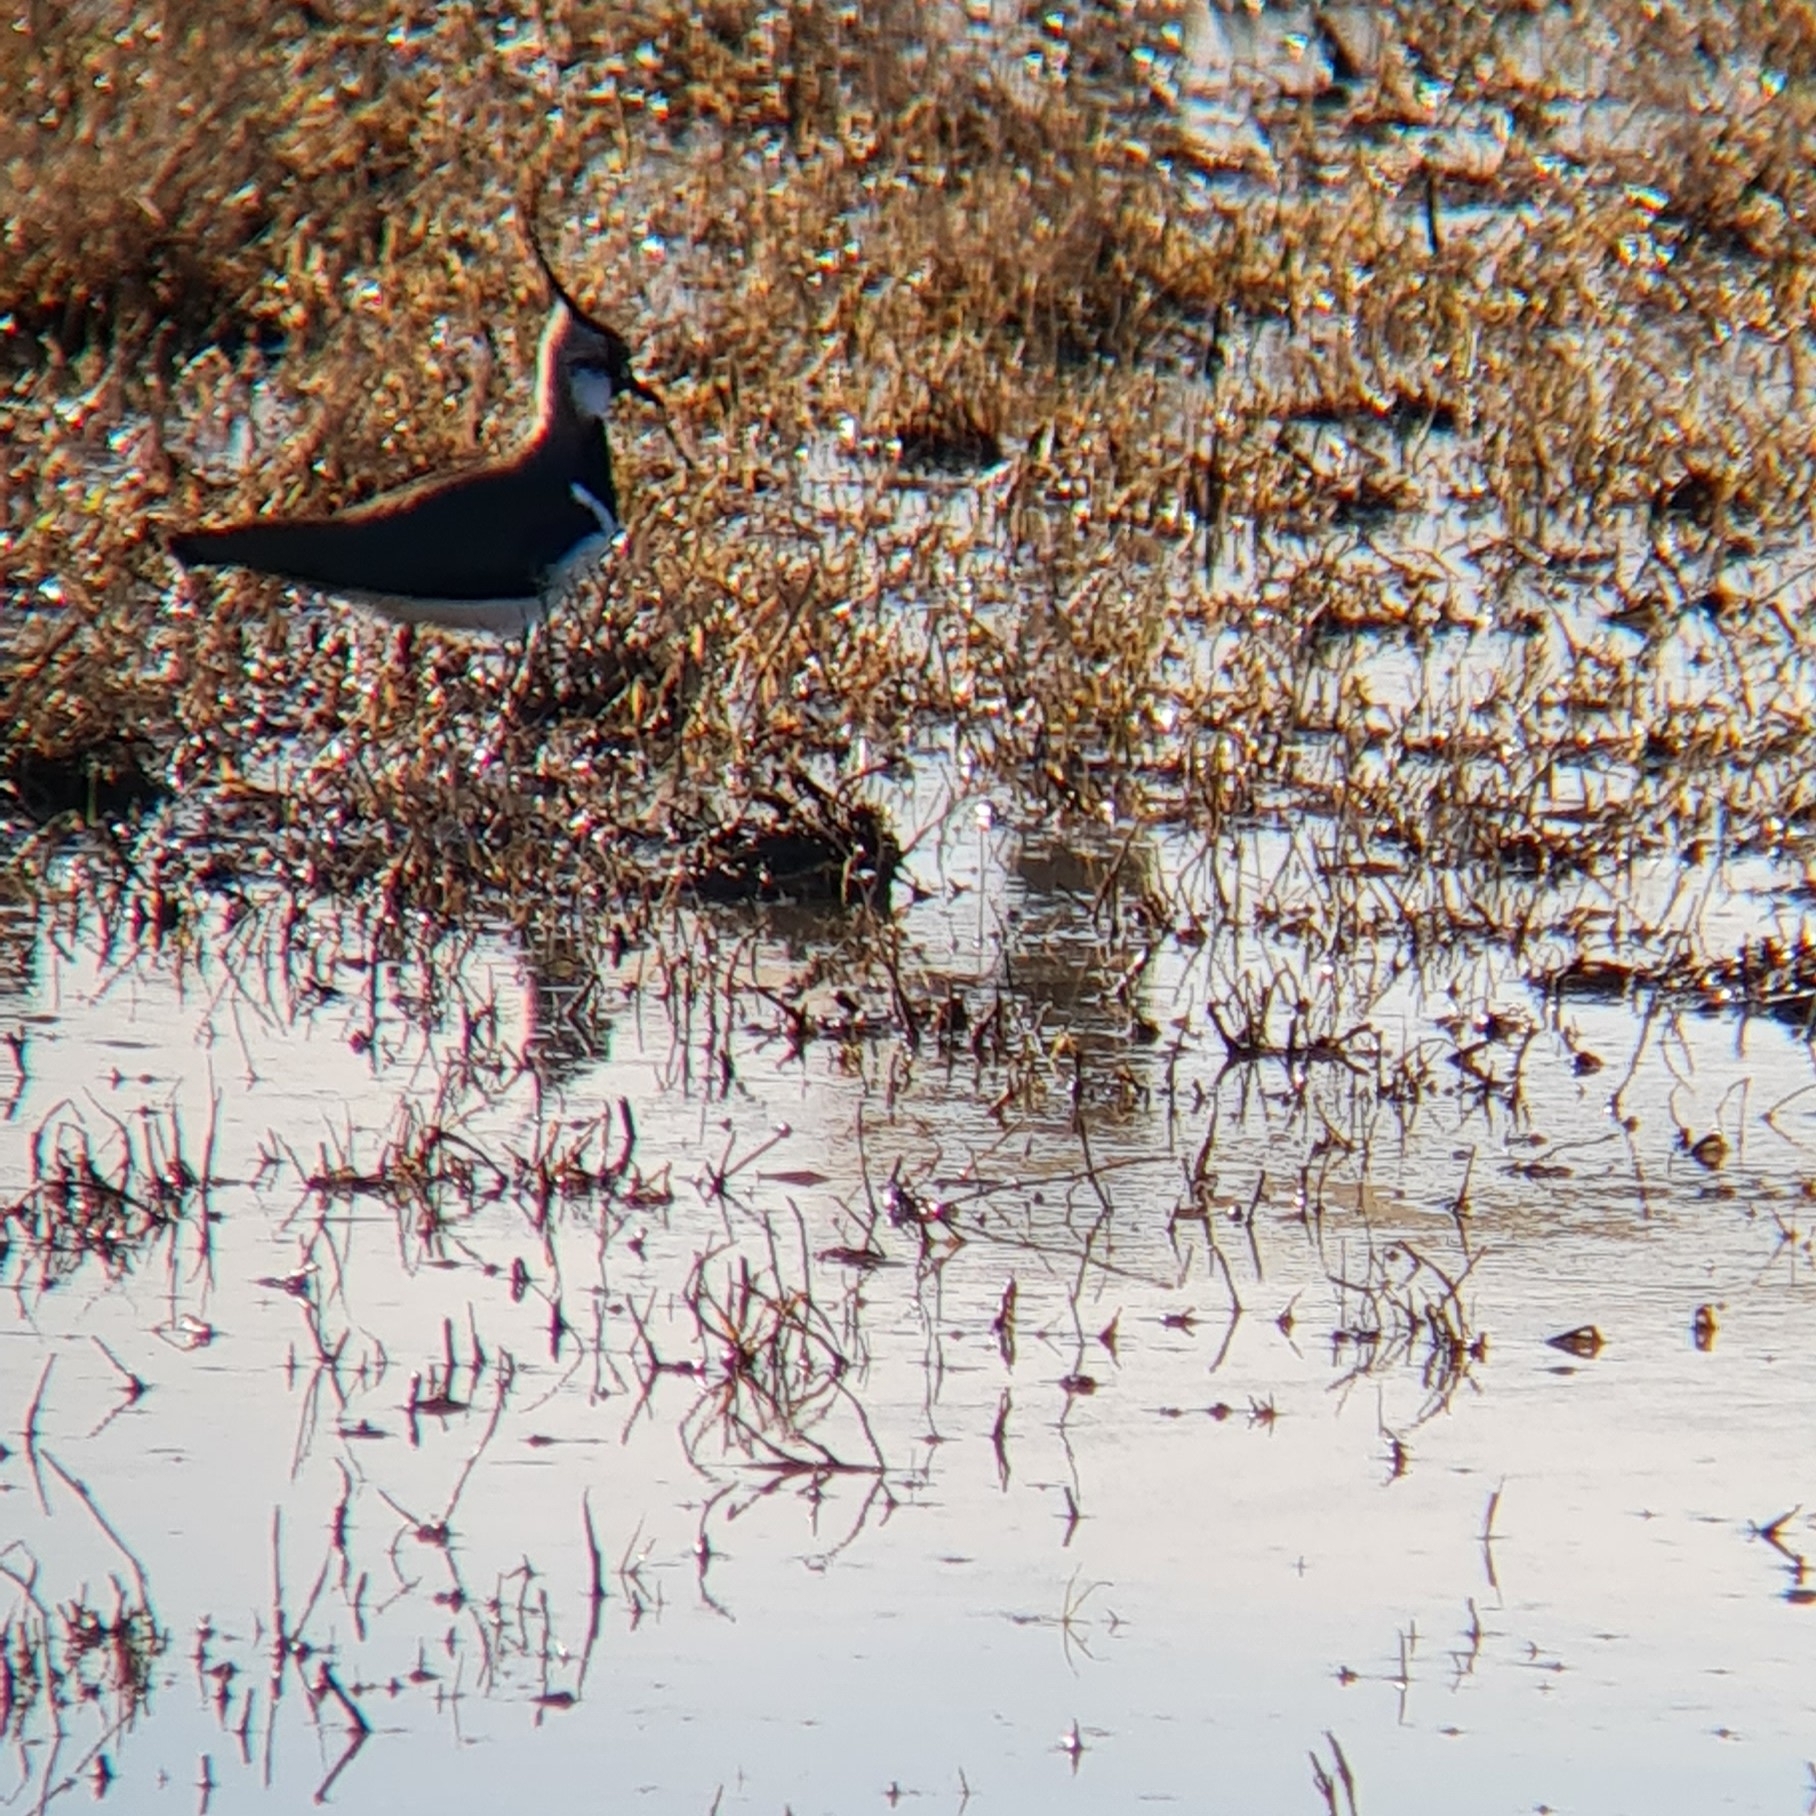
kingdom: Animalia
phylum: Chordata
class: Aves
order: Charadriiformes
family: Charadriidae
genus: Vanellus
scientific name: Vanellus vanellus
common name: Northern lapwing
